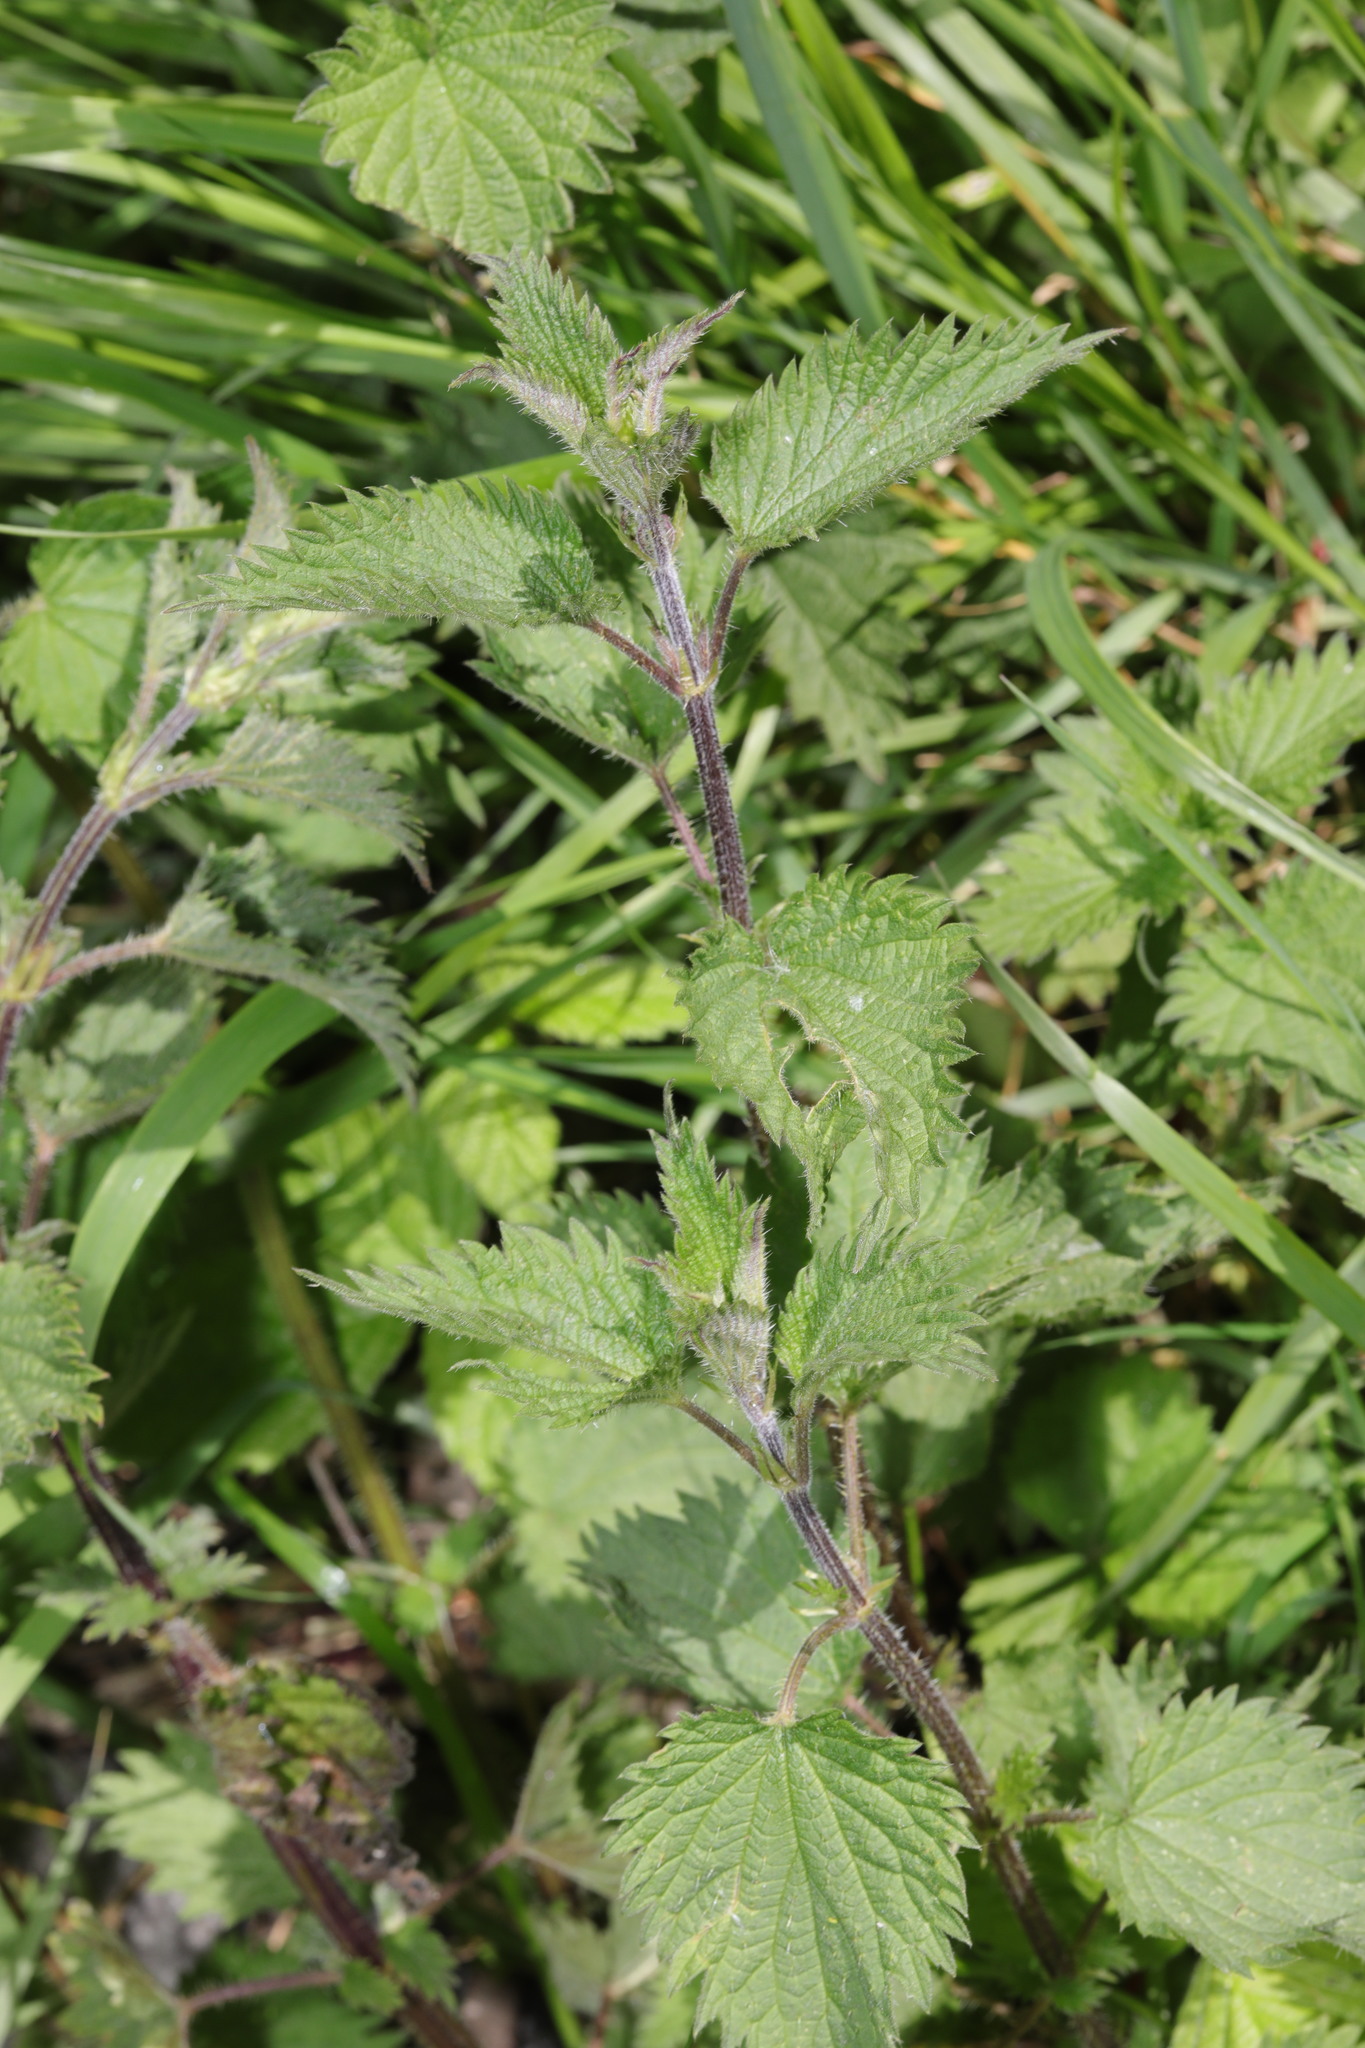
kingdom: Plantae
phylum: Tracheophyta
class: Magnoliopsida
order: Rosales
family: Urticaceae
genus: Urtica
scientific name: Urtica dioica
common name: Common nettle
